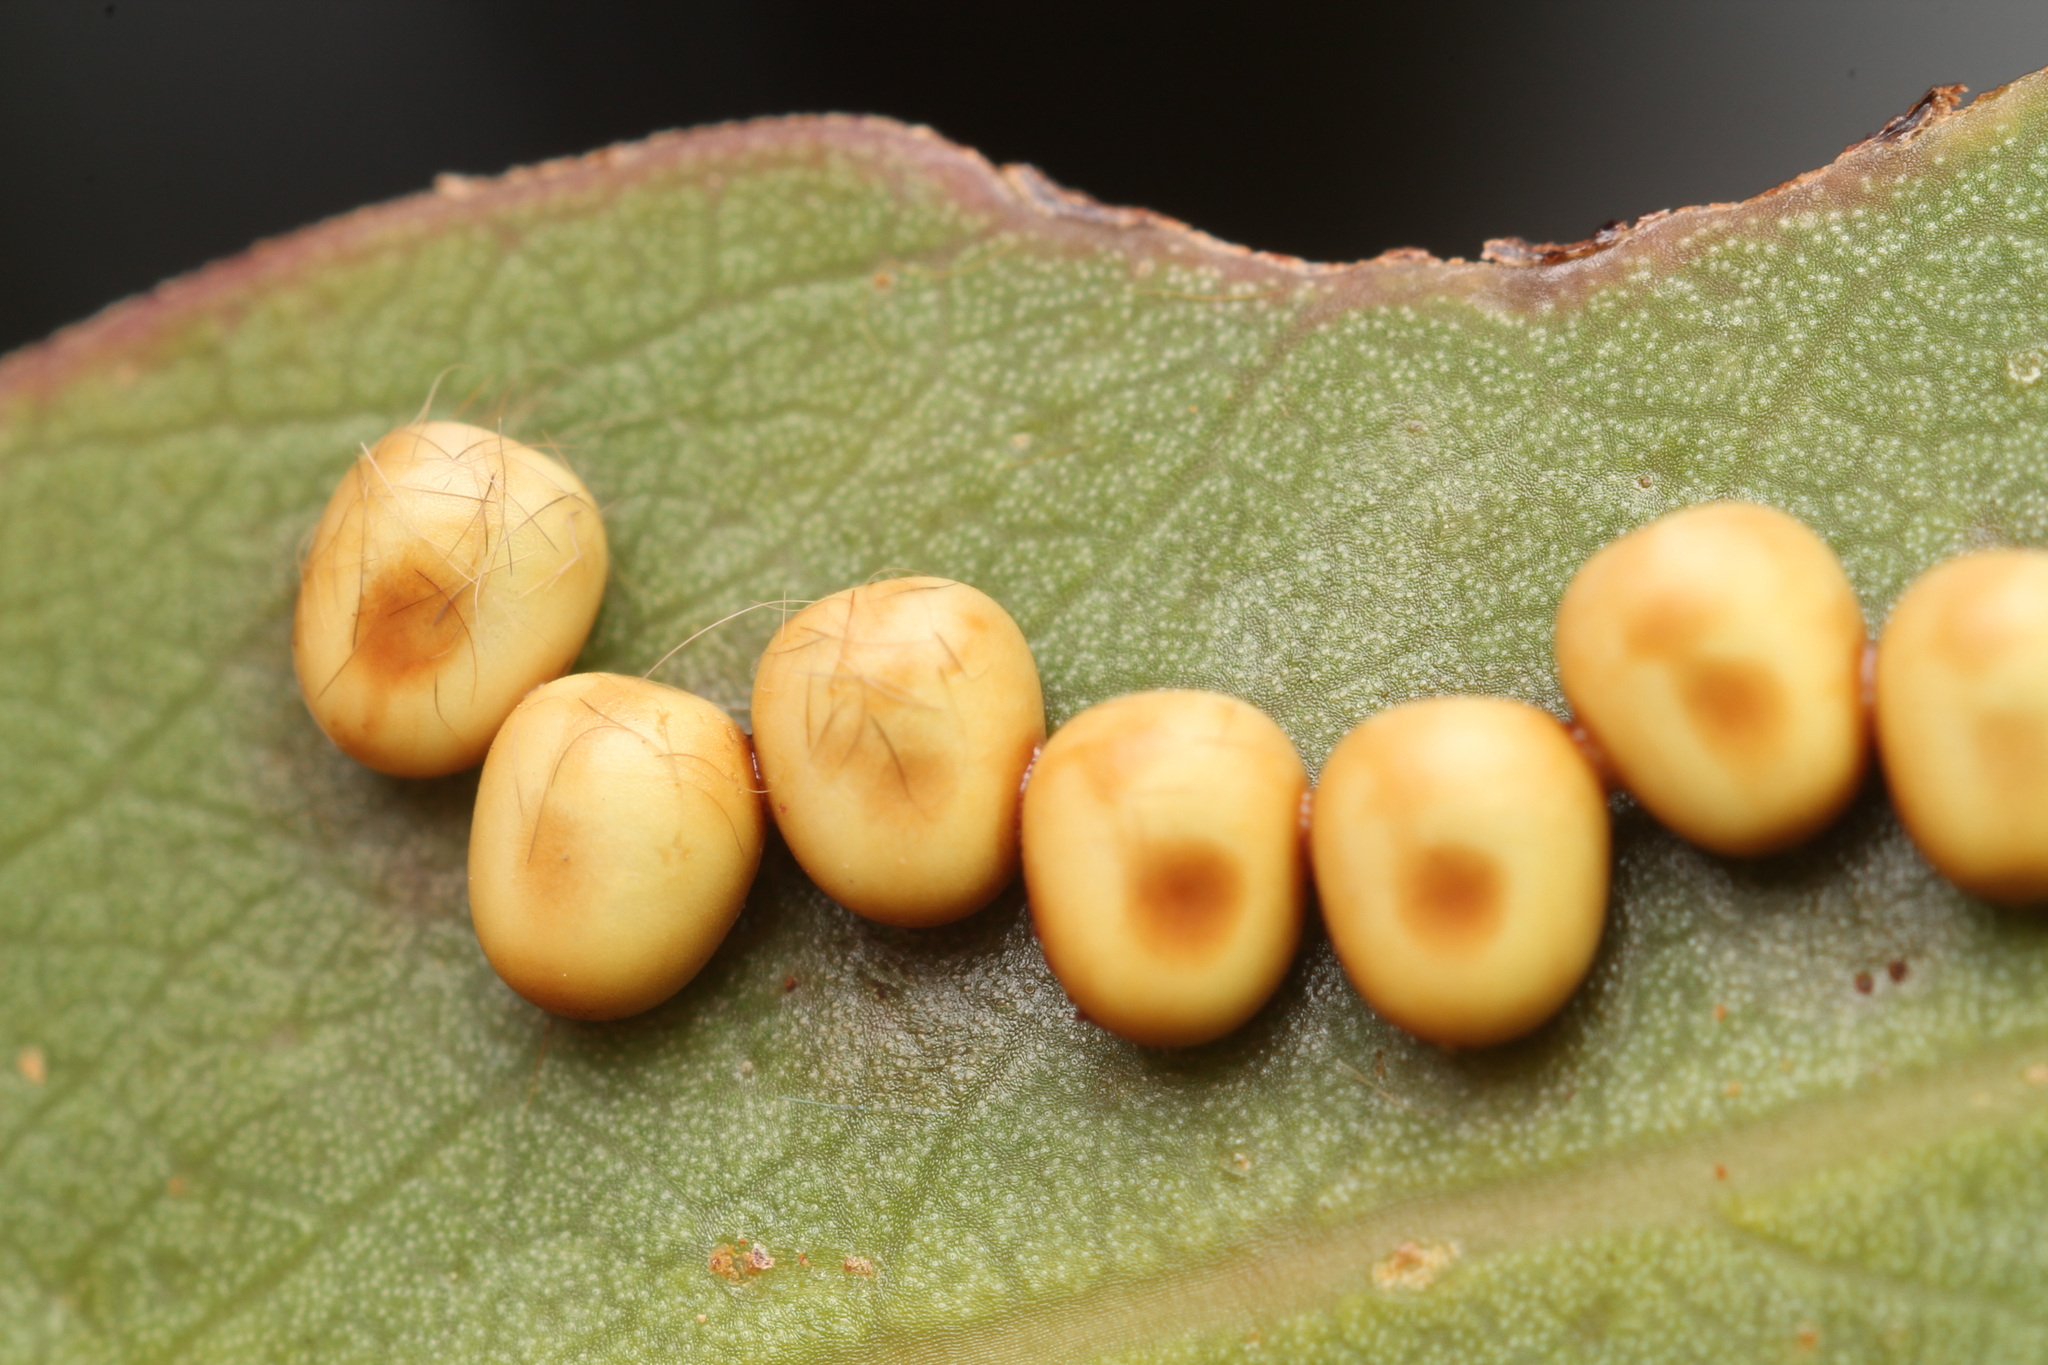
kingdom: Animalia
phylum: Arthropoda
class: Insecta
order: Lepidoptera
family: Saturniidae
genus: Opodiphthera
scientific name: Opodiphthera
